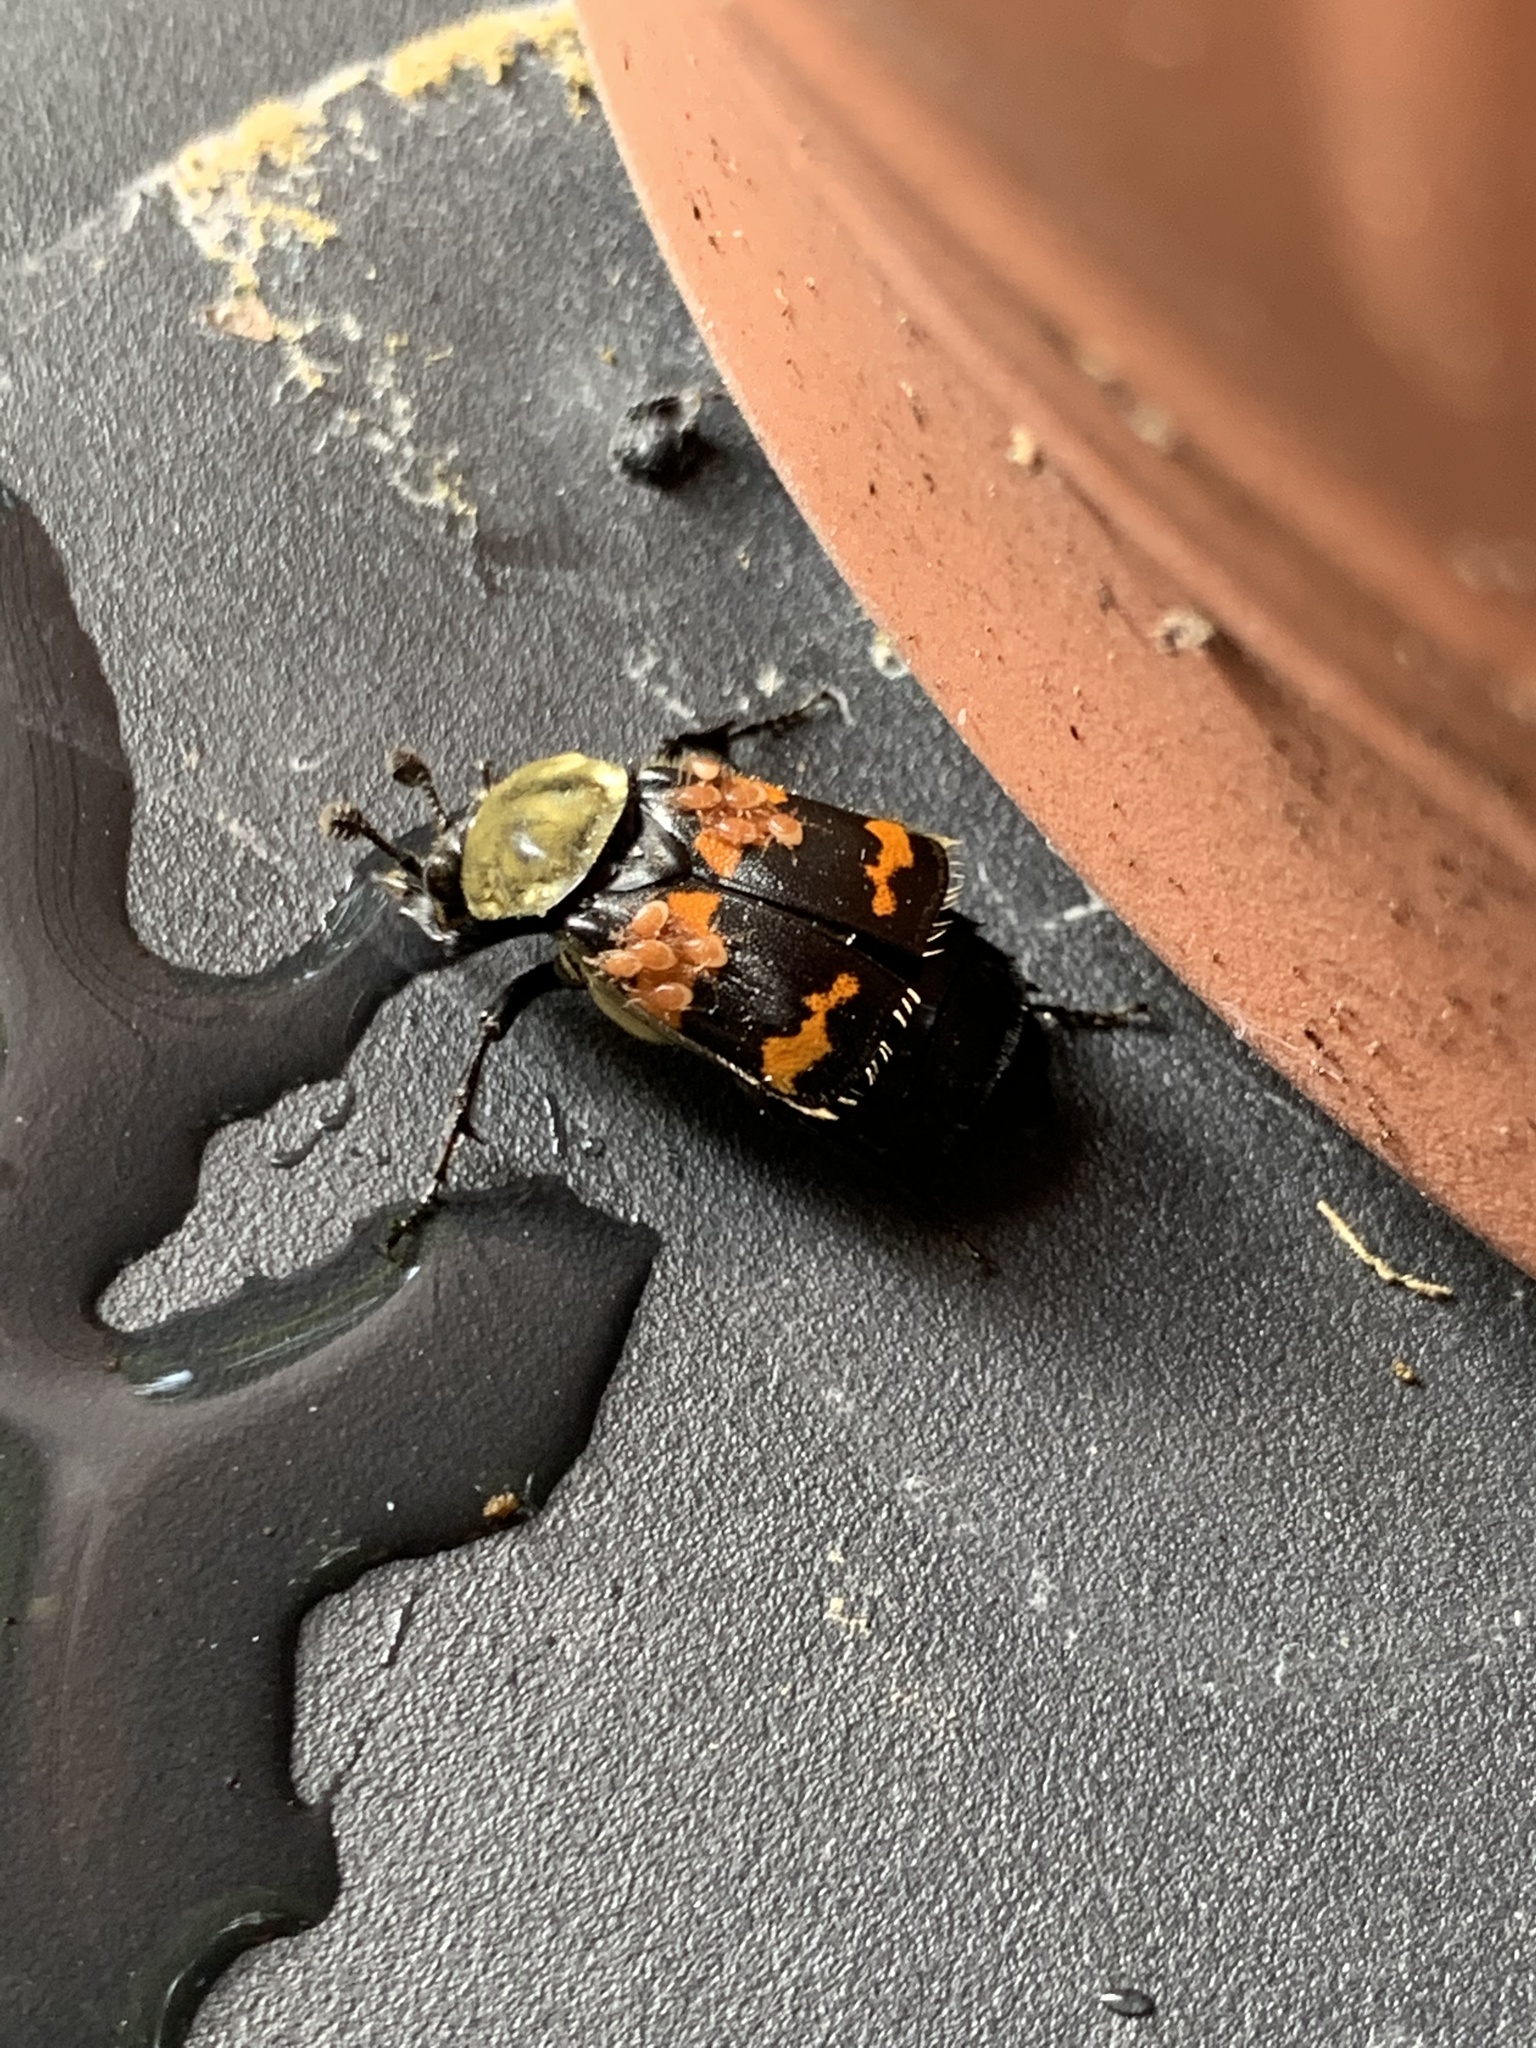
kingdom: Animalia
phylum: Arthropoda
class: Insecta
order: Coleoptera
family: Staphylinidae
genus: Nicrophorus
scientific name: Nicrophorus tomentosus
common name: Tomentose burying beetle
